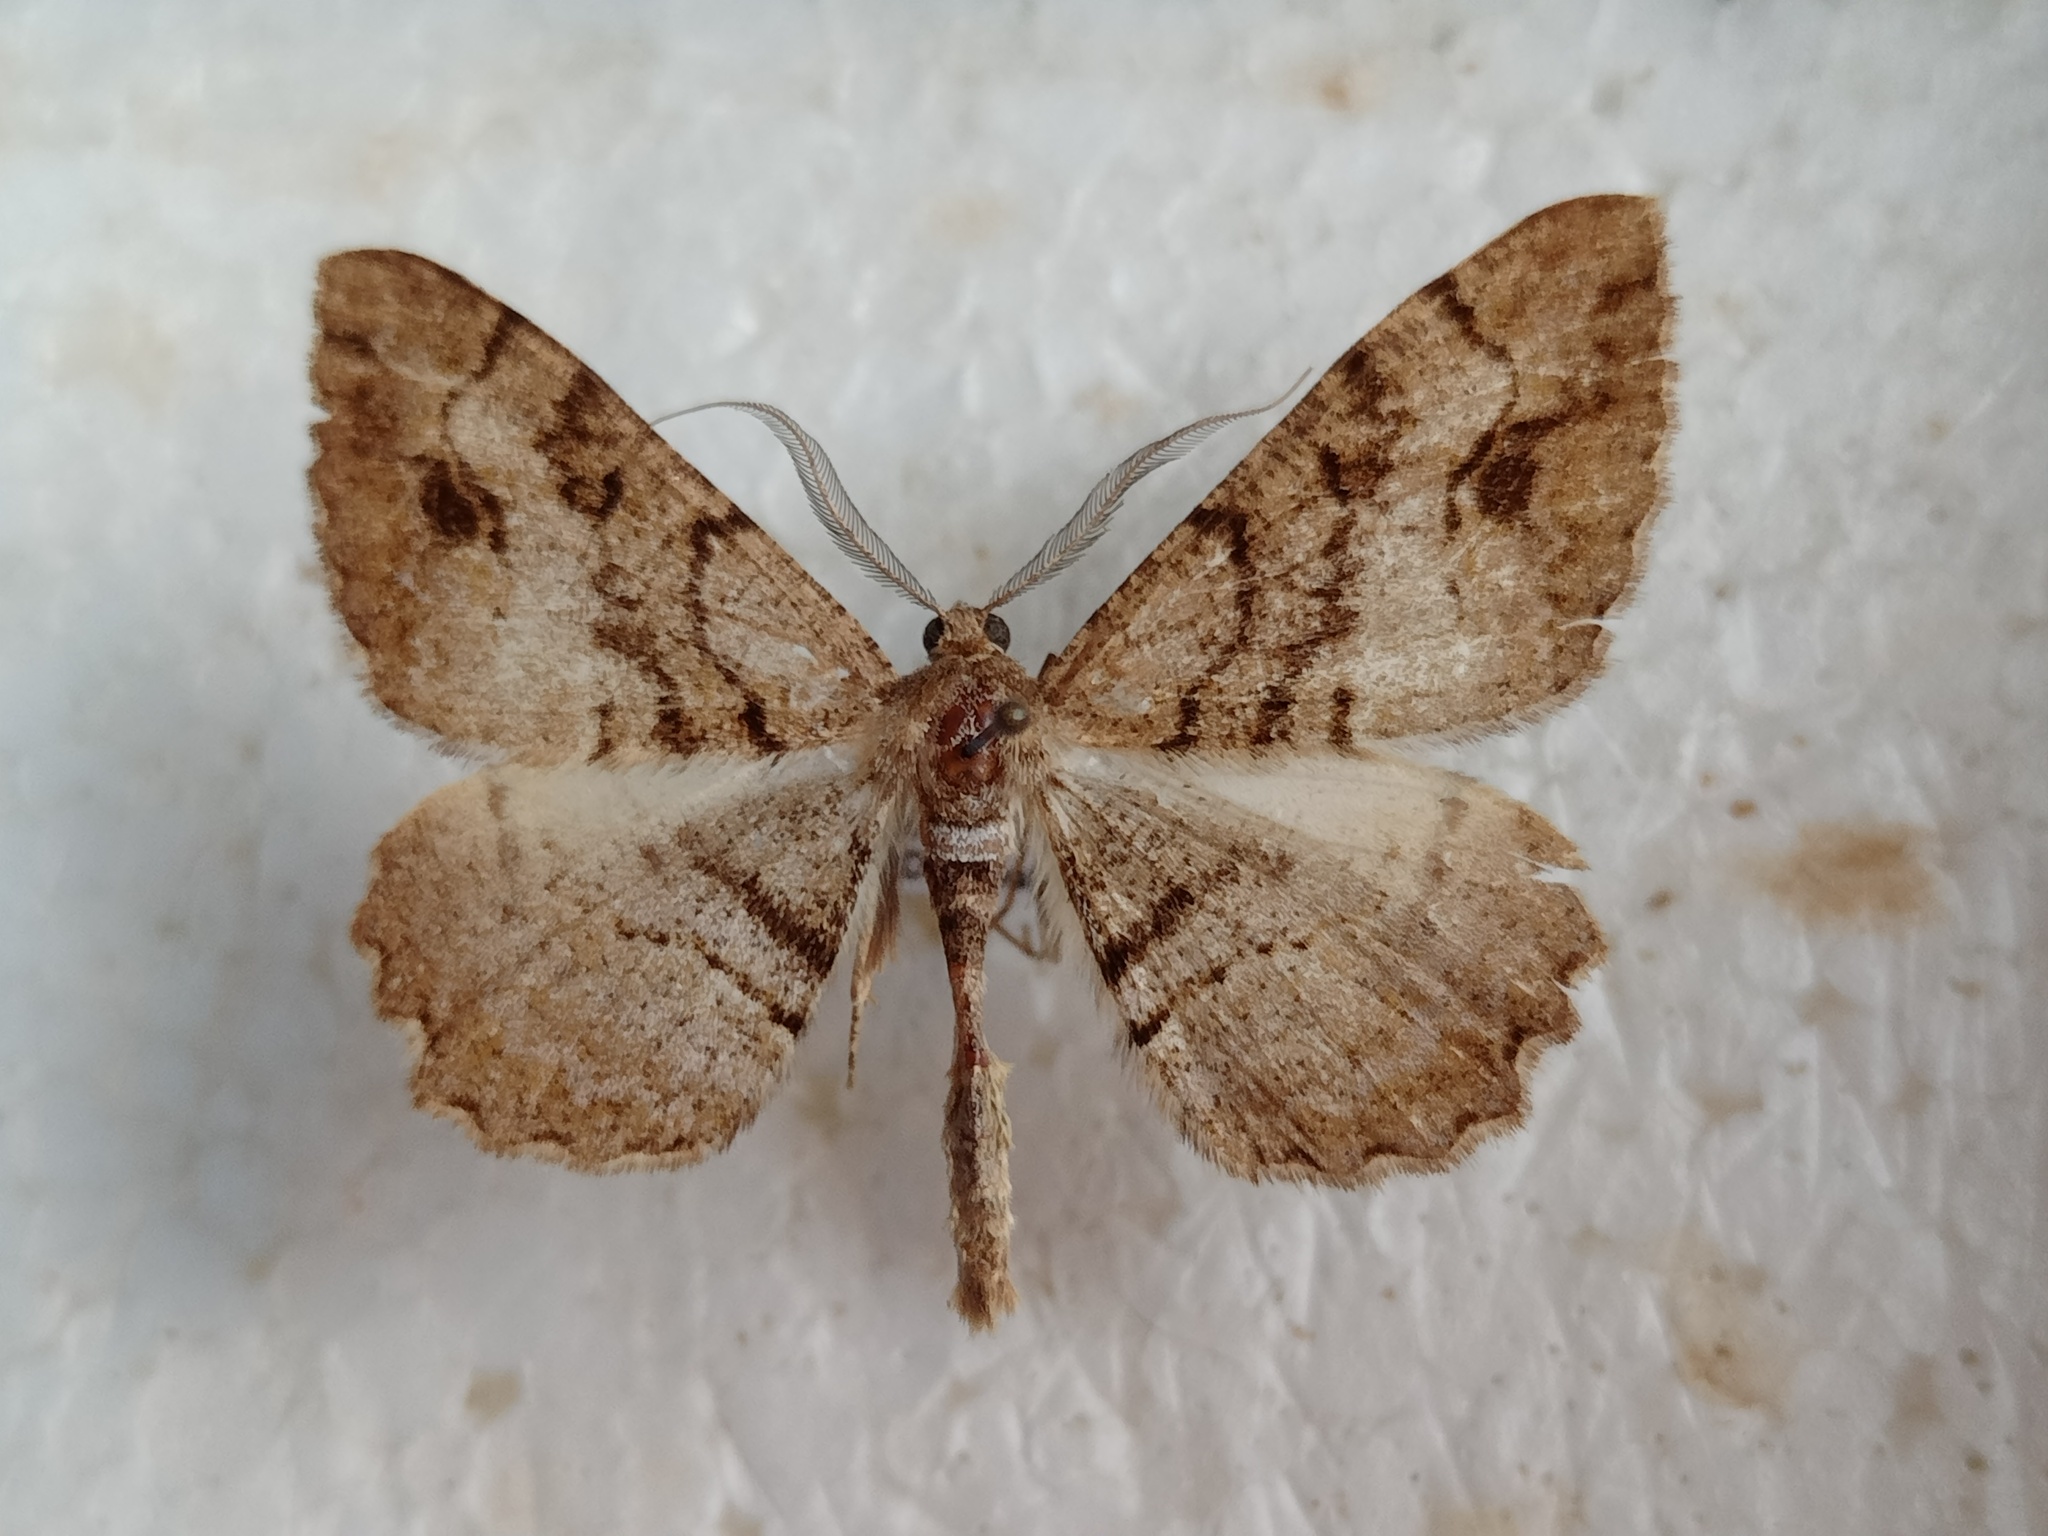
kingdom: Animalia
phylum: Arthropoda
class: Insecta
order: Lepidoptera
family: Geometridae
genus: Alcis
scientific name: Alcis deversata
